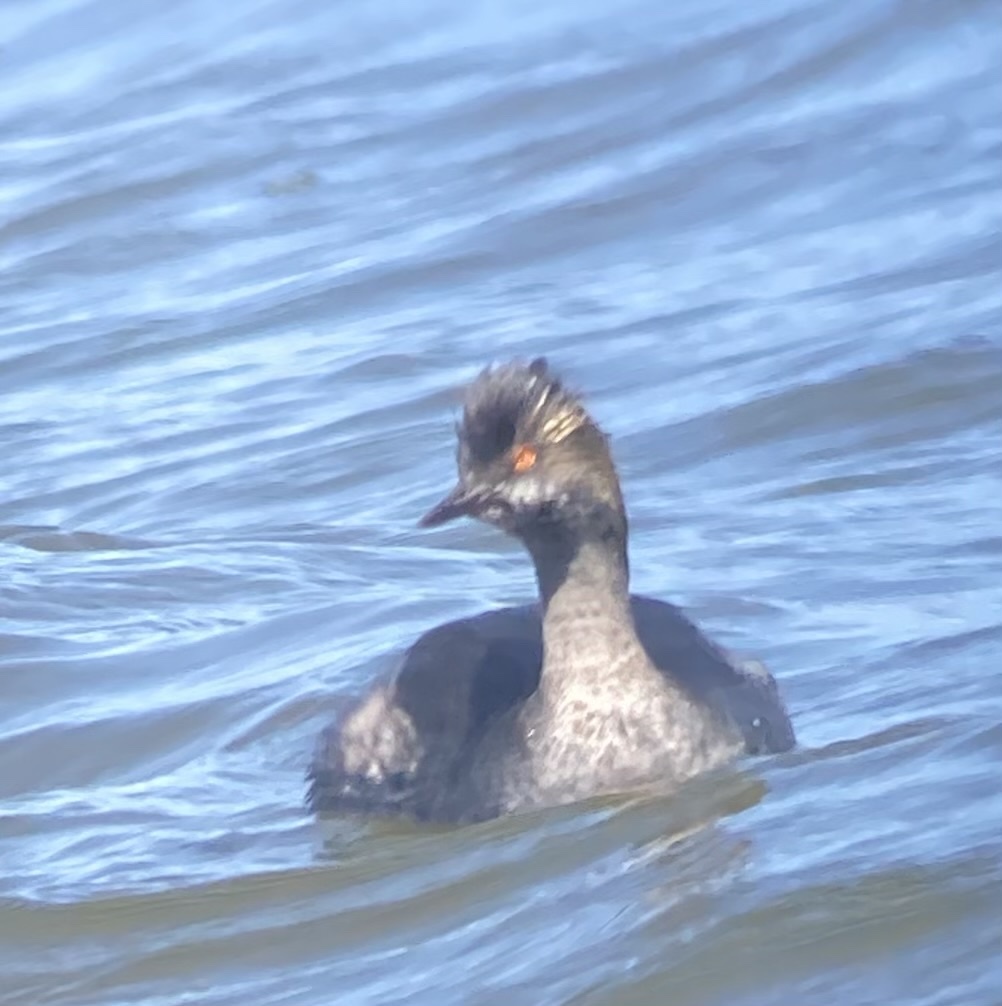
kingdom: Animalia
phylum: Chordata
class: Aves
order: Podicipediformes
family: Podicipedidae
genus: Podiceps
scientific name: Podiceps nigricollis
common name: Black-necked grebe
